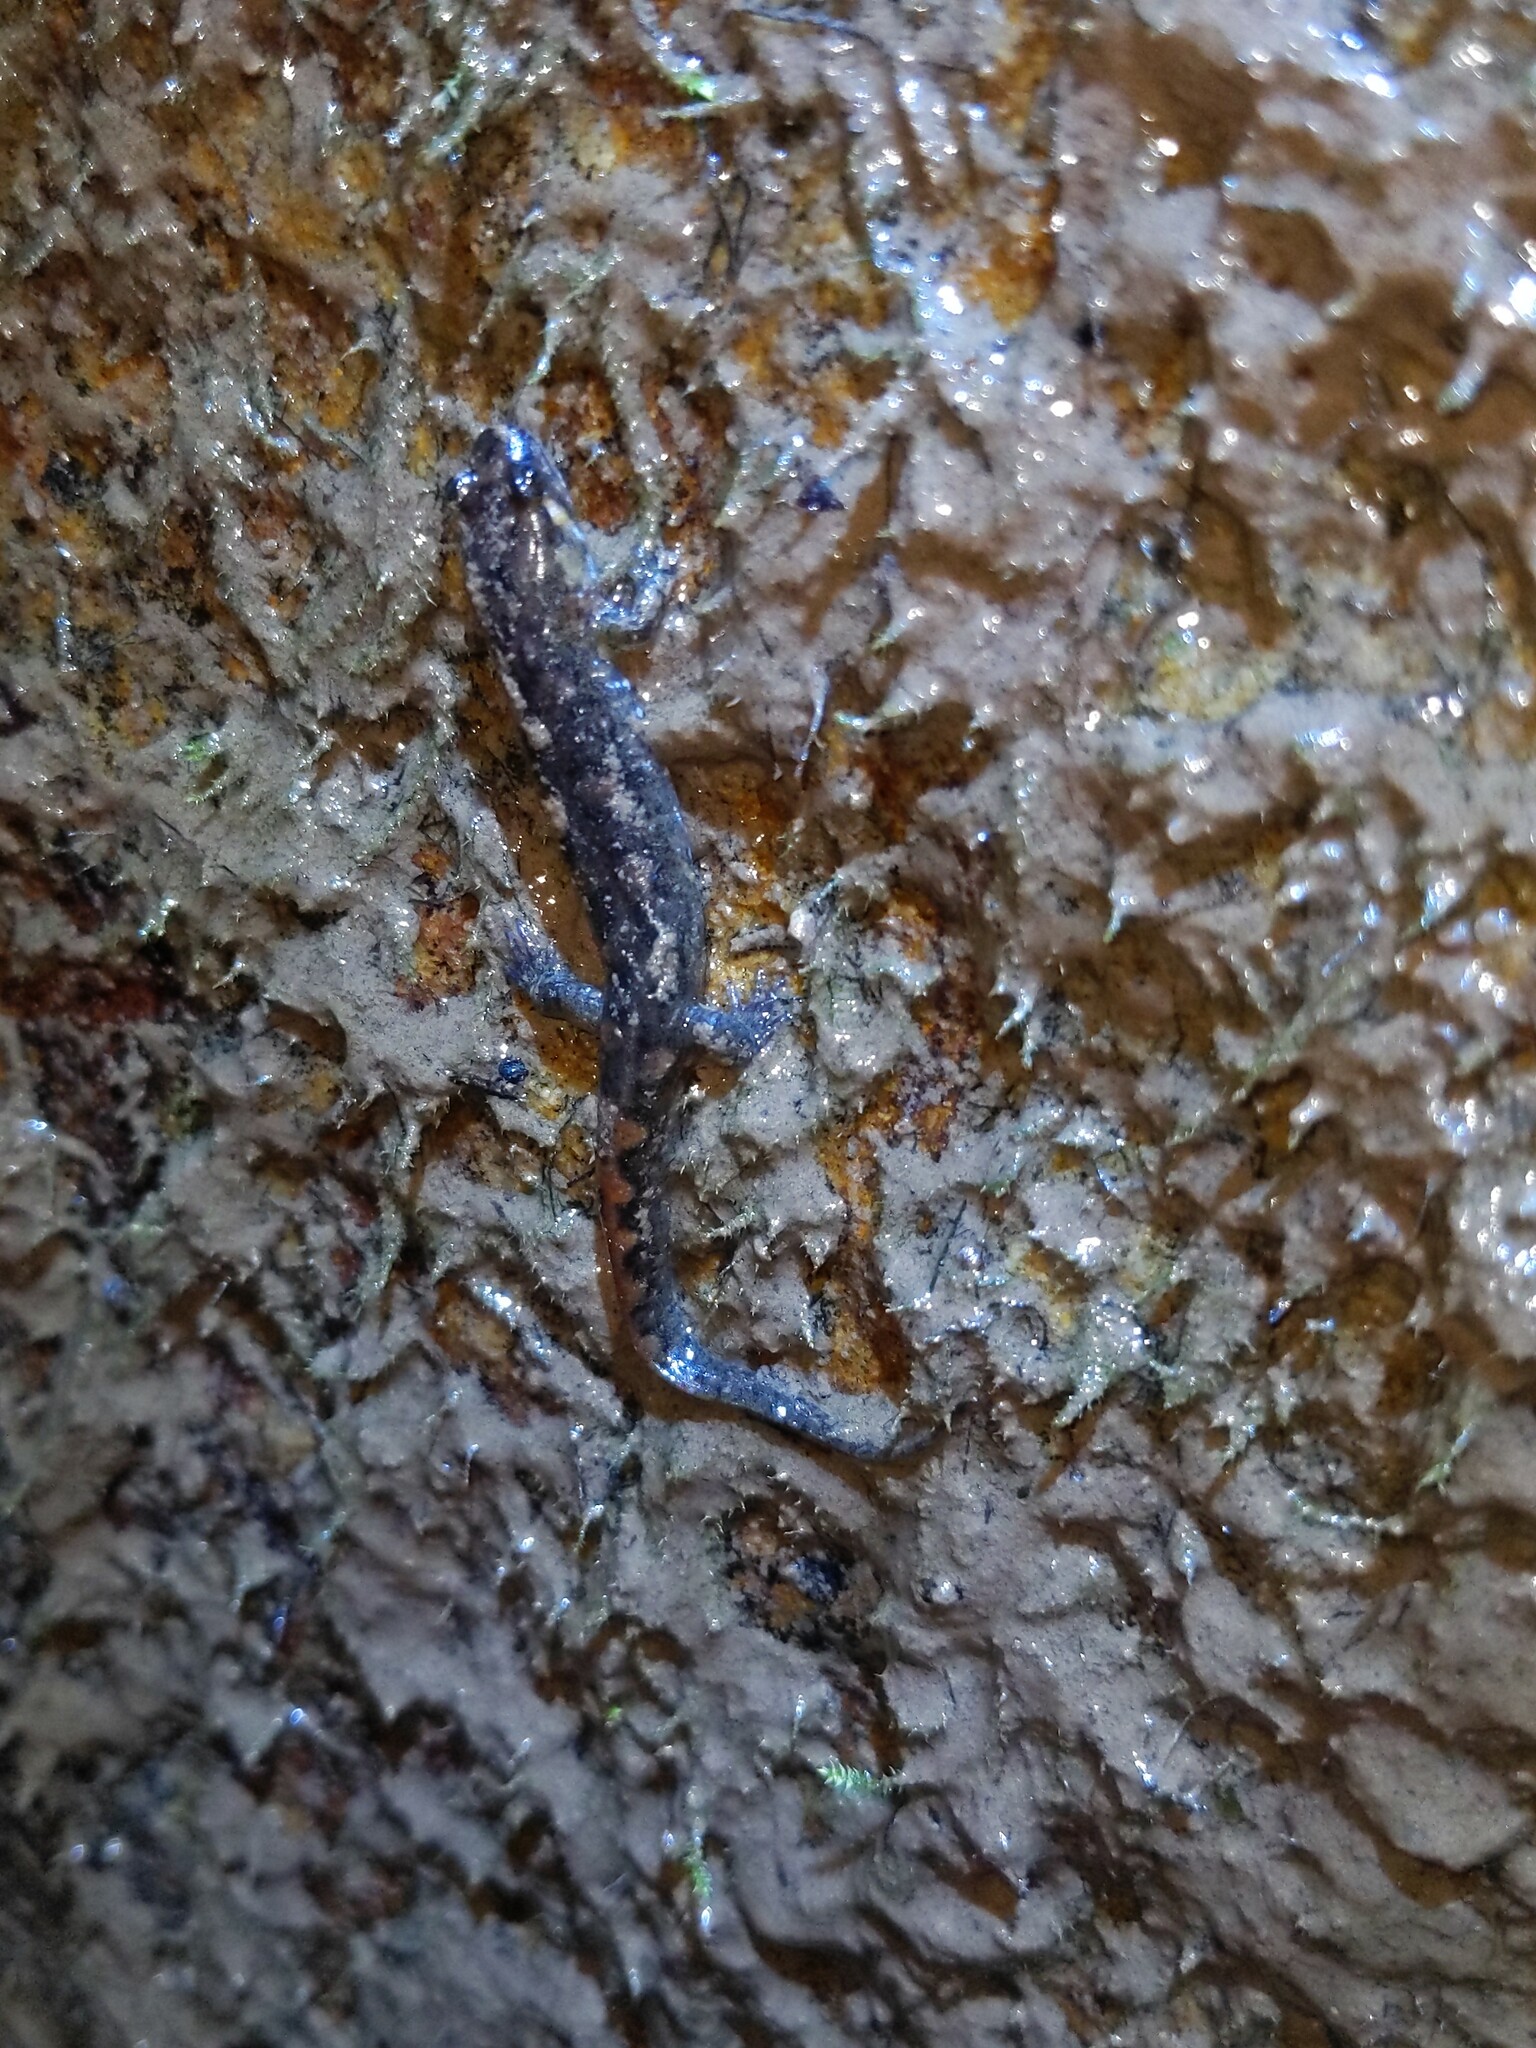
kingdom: Animalia
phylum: Chordata
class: Amphibia
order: Caudata
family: Plethodontidae
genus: Desmognathus
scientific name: Desmognathus monticola
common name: Seal salamander
